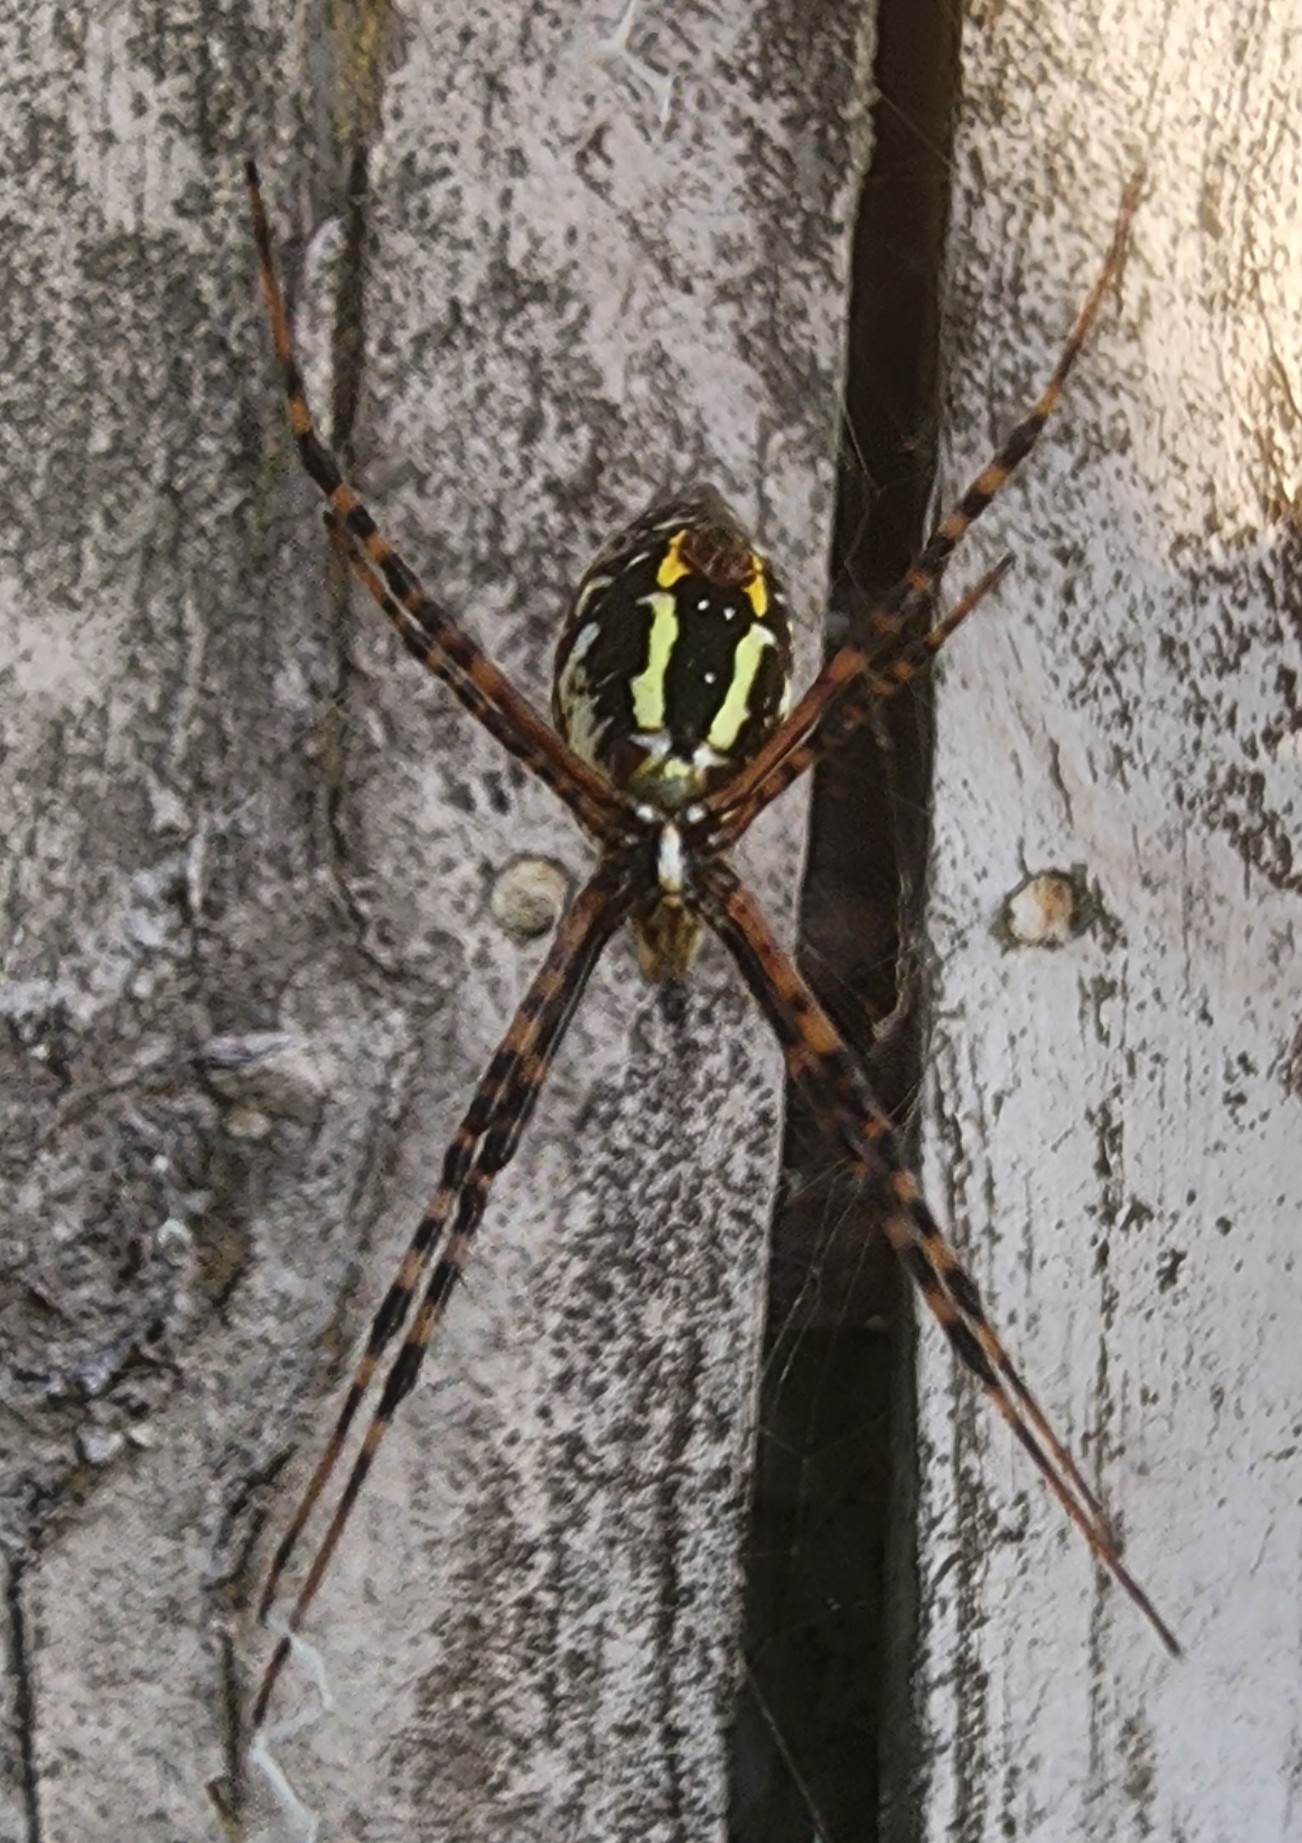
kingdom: Animalia
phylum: Arthropoda
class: Arachnida
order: Araneae
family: Araneidae
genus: Argiope
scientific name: Argiope aurantia
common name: Orb weavers
